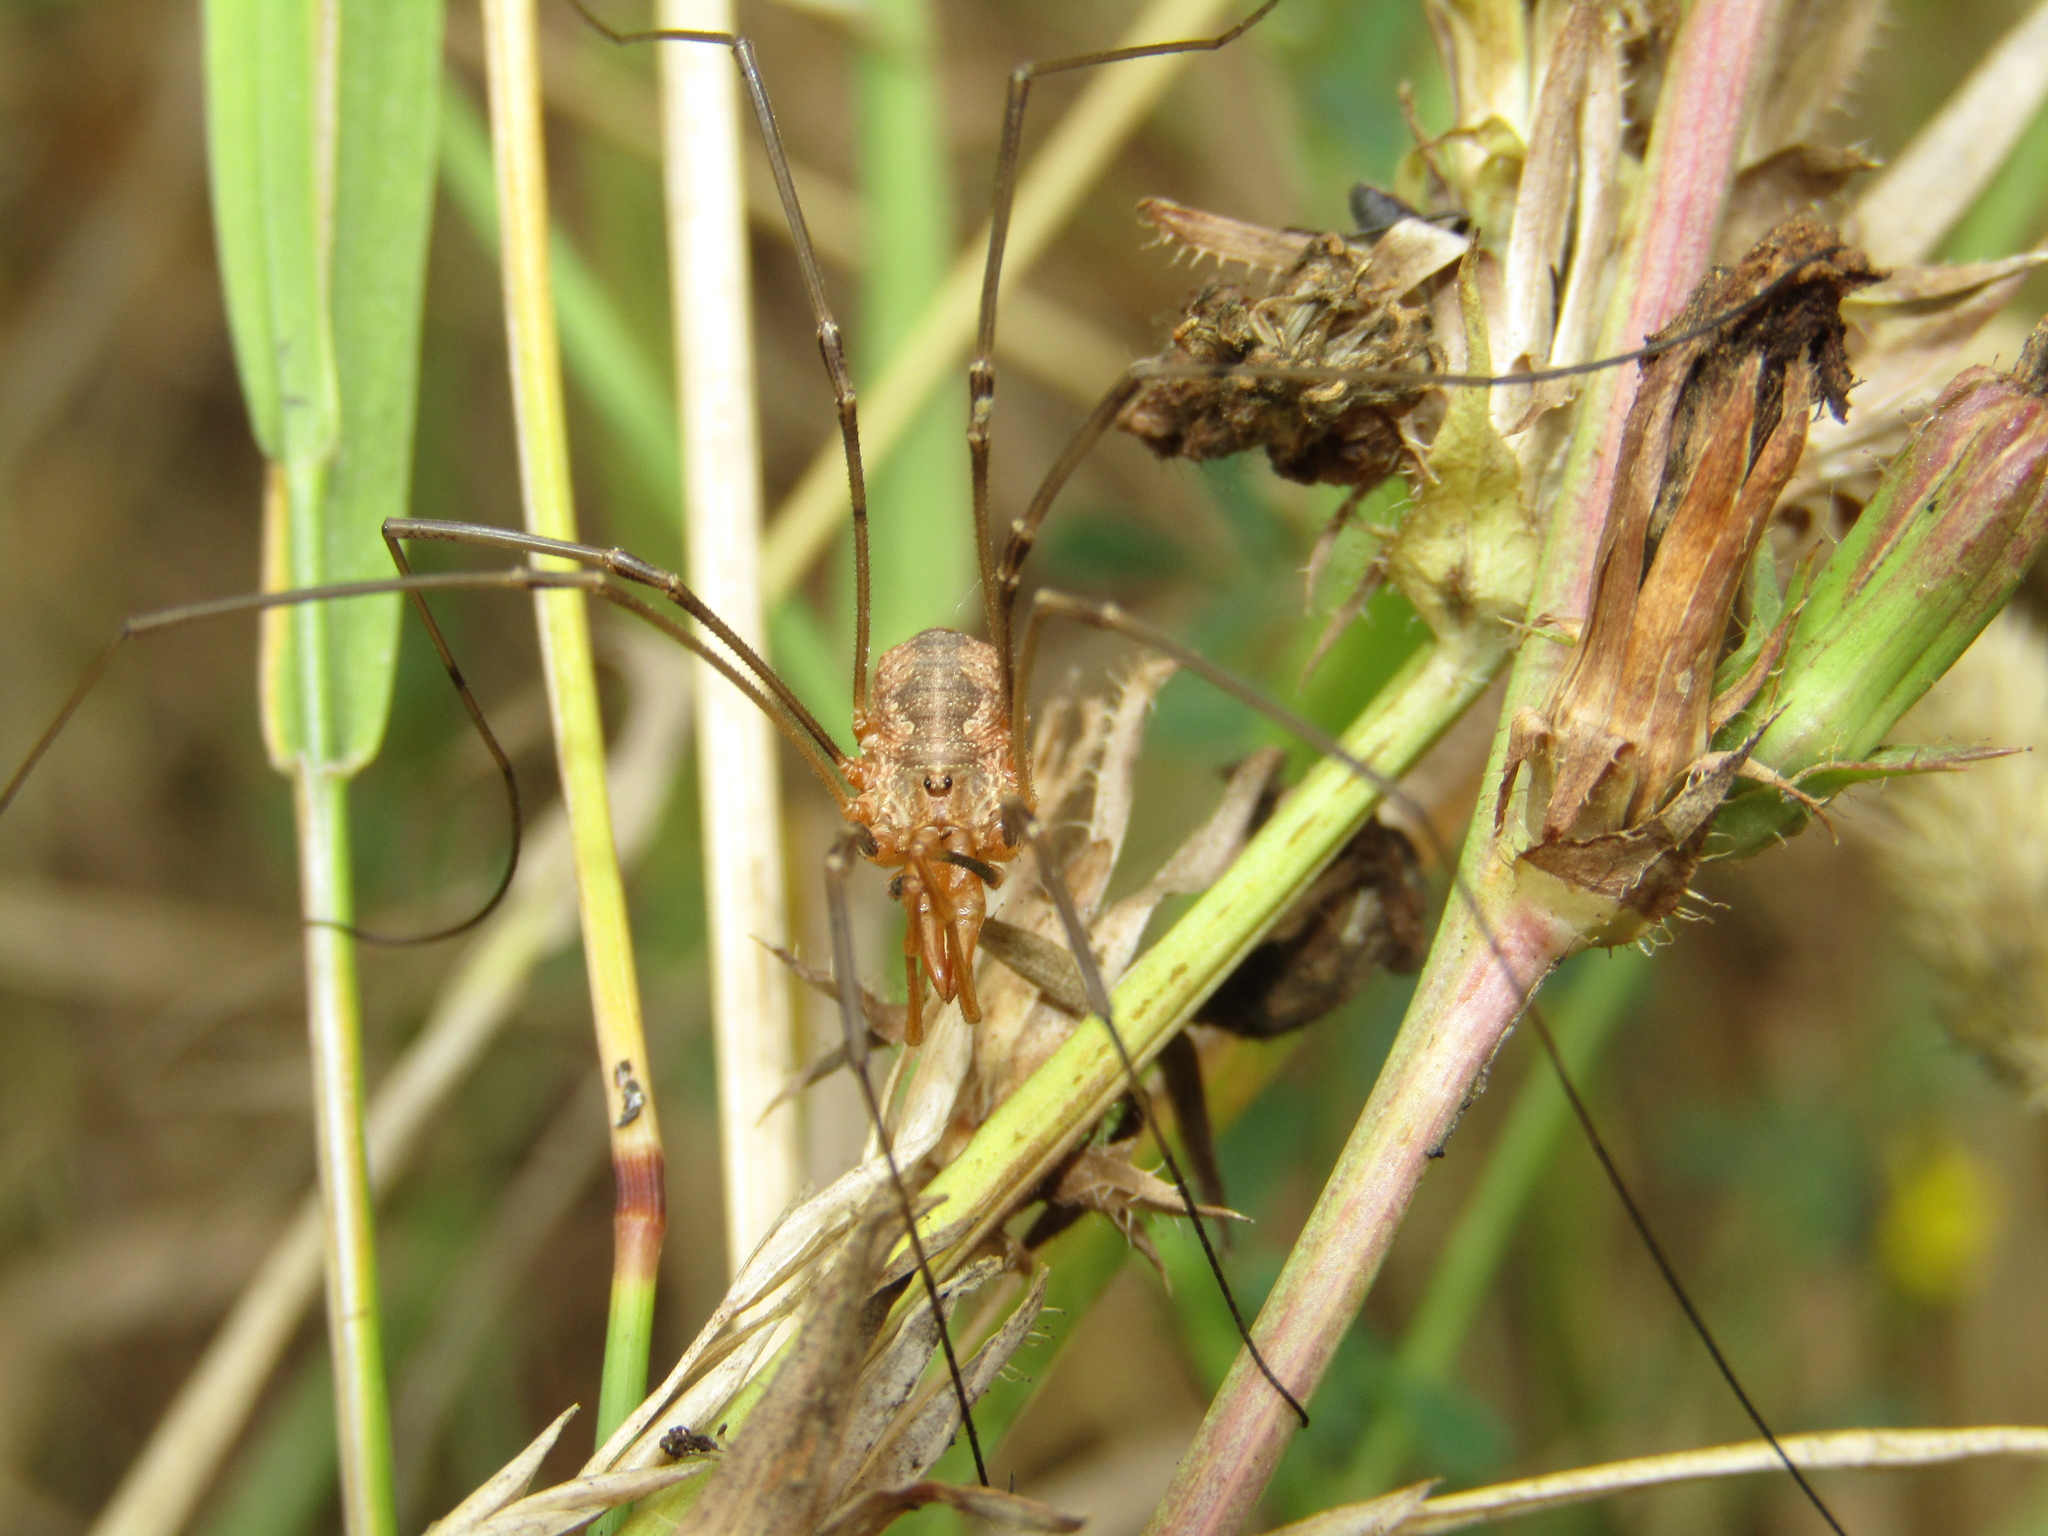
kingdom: Animalia
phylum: Arthropoda
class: Arachnida
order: Opiliones
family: Phalangiidae
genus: Phalangium
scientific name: Phalangium opilio
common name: Daddy longleg
